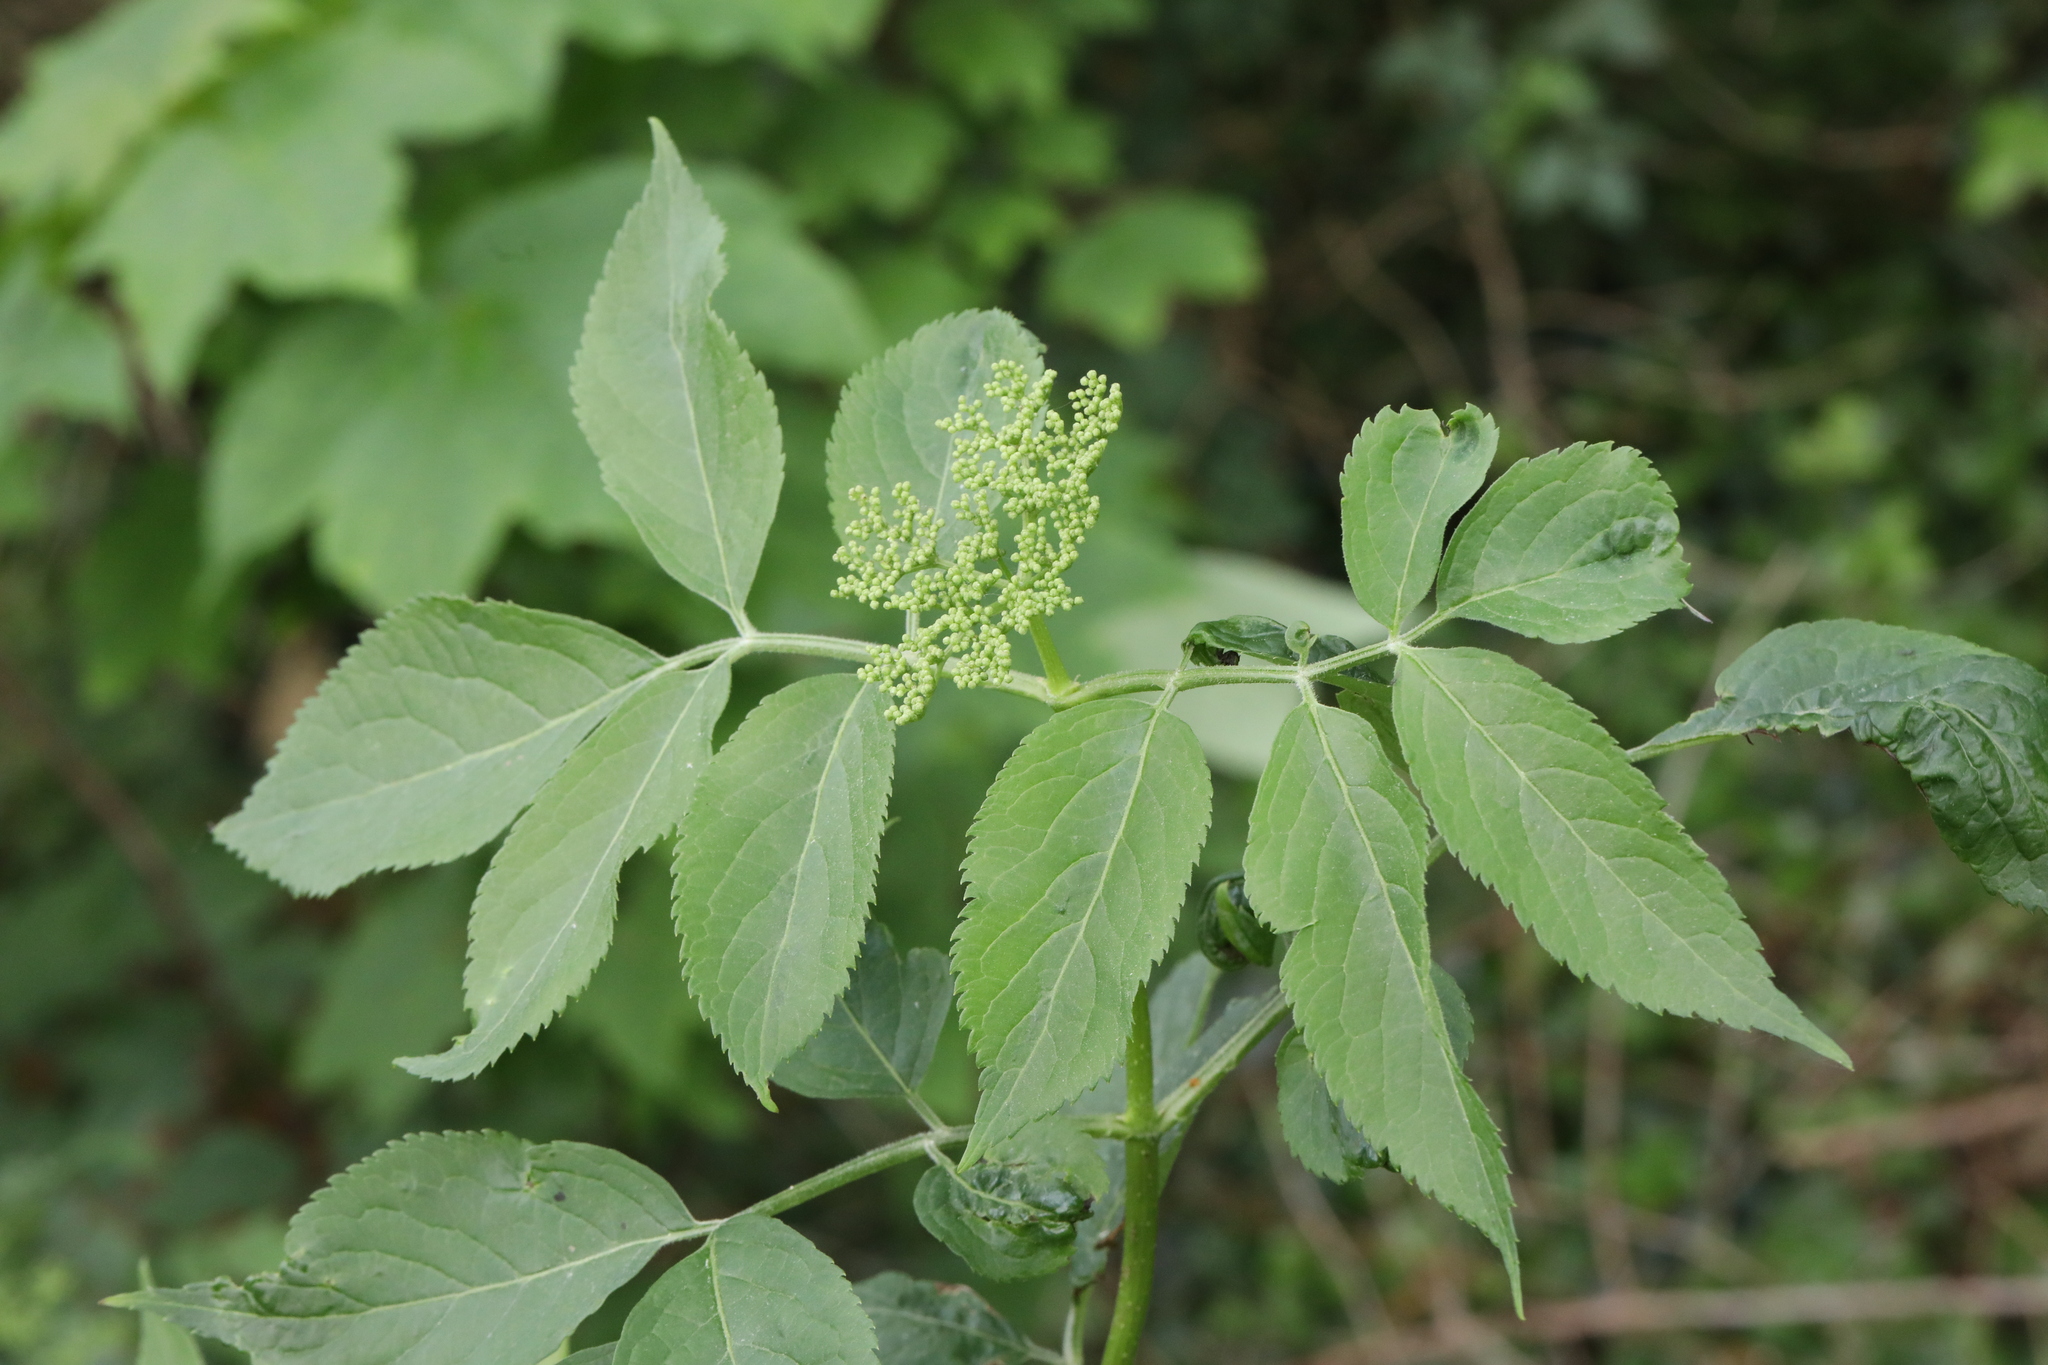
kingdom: Plantae
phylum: Tracheophyta
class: Magnoliopsida
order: Dipsacales
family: Viburnaceae
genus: Sambucus
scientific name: Sambucus nigra
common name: Elder
